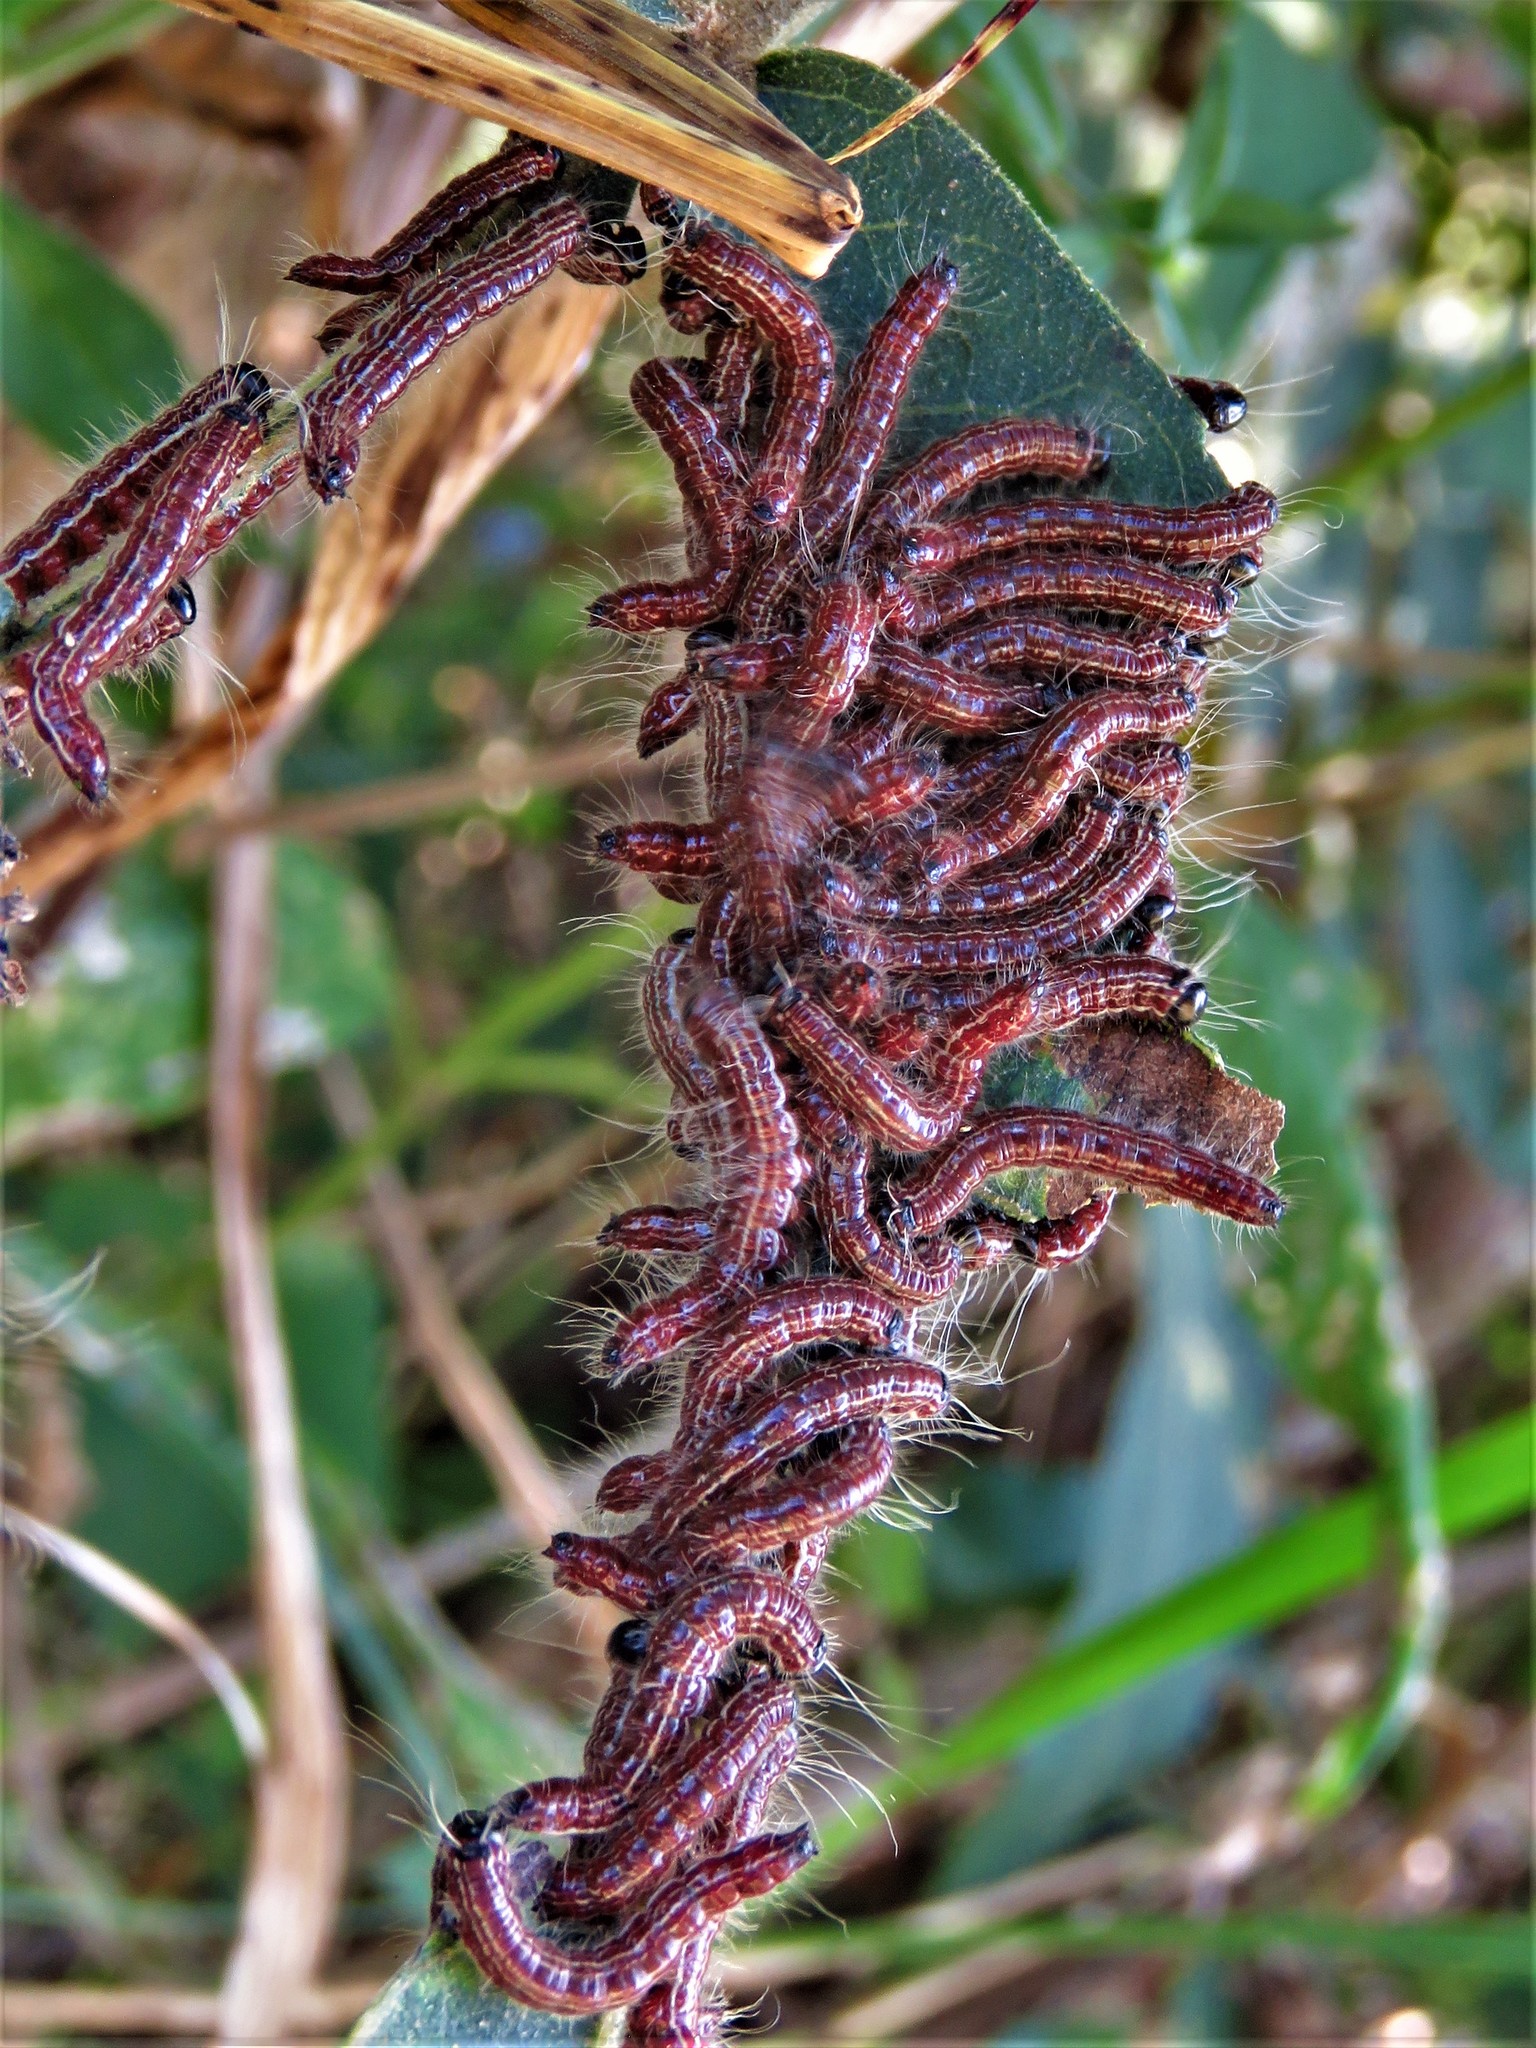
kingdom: Animalia
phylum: Arthropoda
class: Insecta
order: Lepidoptera
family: Notodontidae
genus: Datana
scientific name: Datana integerrima
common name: Walnut caterpillar
